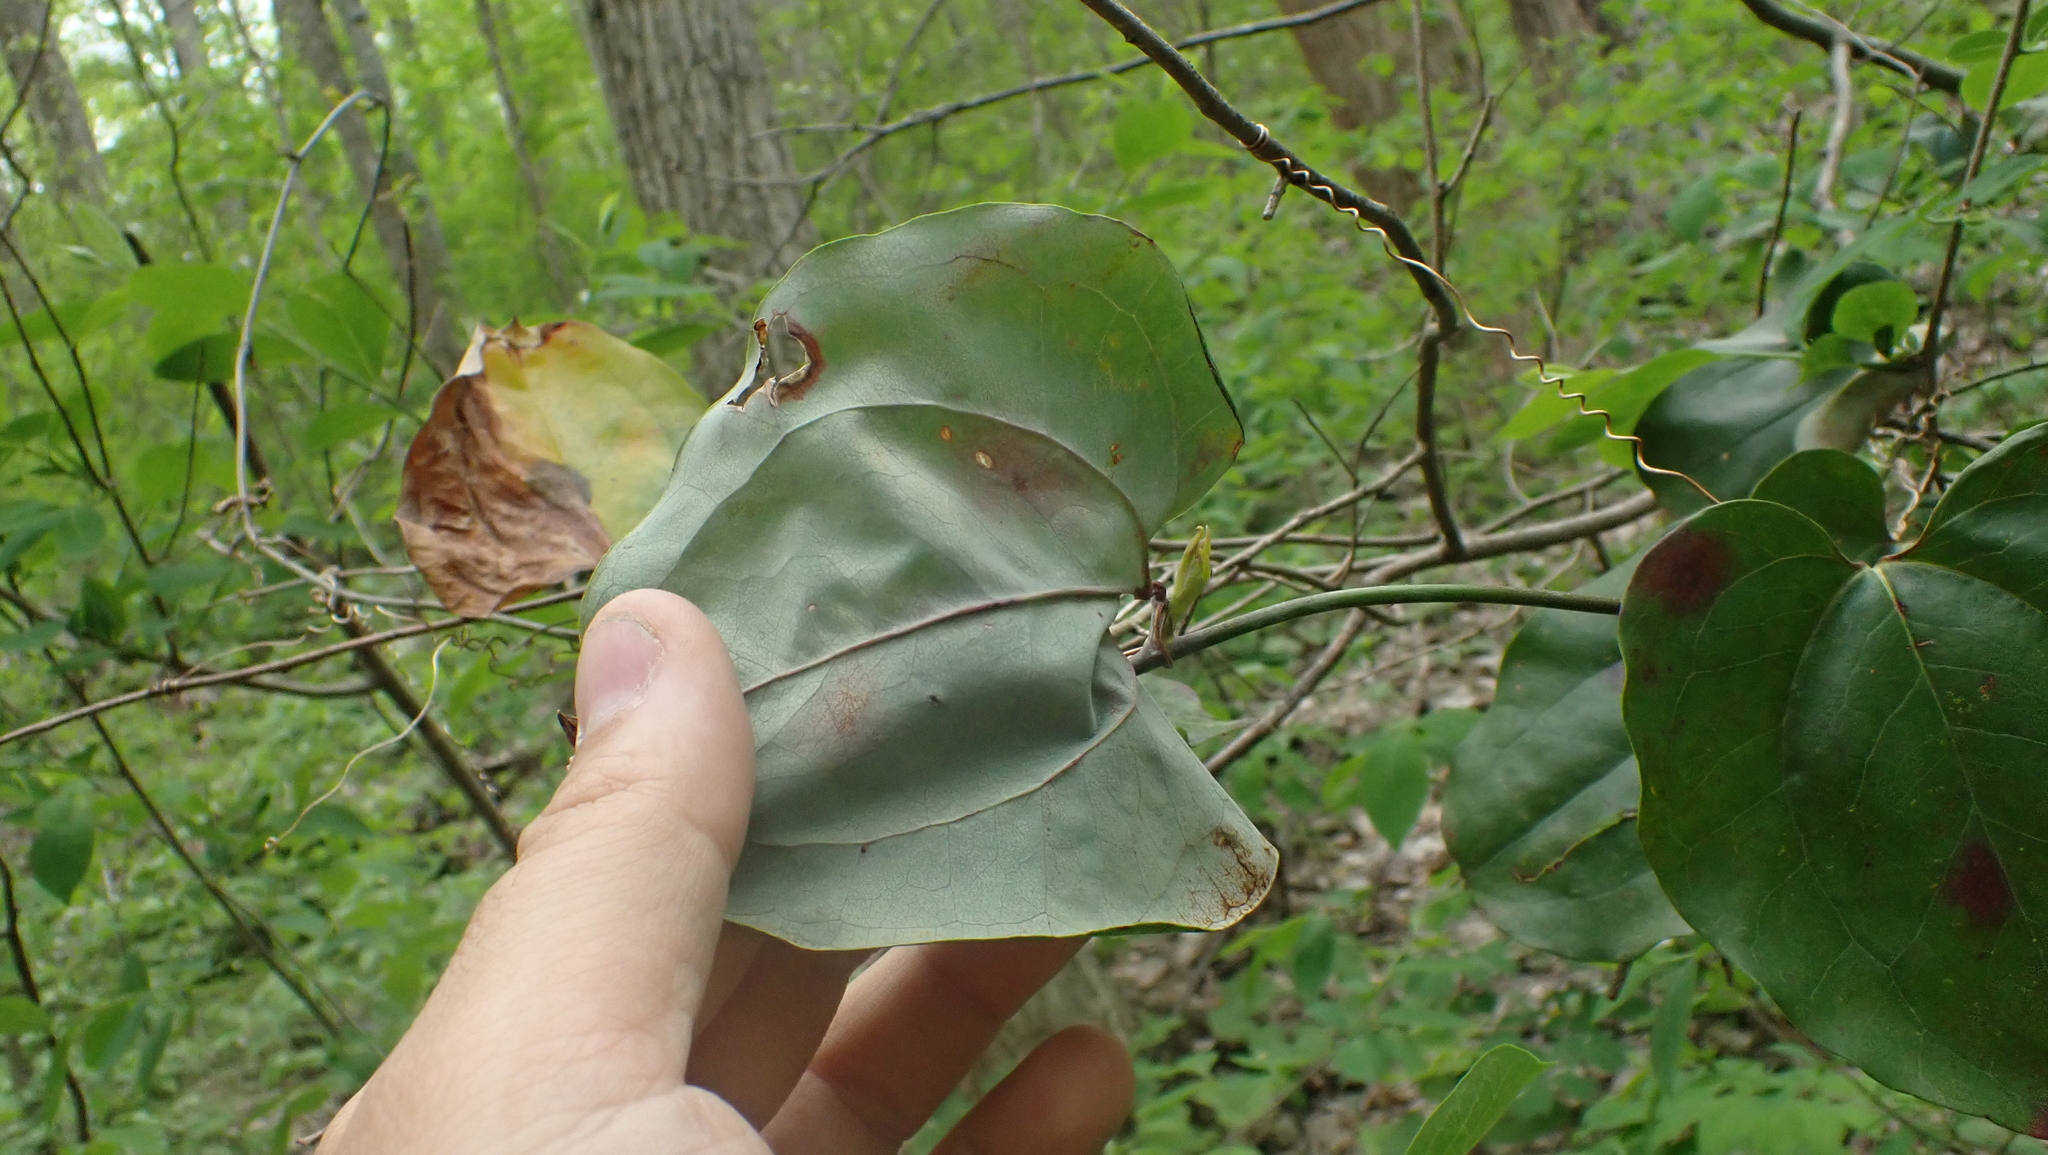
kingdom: Plantae
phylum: Tracheophyta
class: Liliopsida
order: Liliales
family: Smilacaceae
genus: Smilax
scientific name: Smilax glauca
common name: Cat greenbrier
